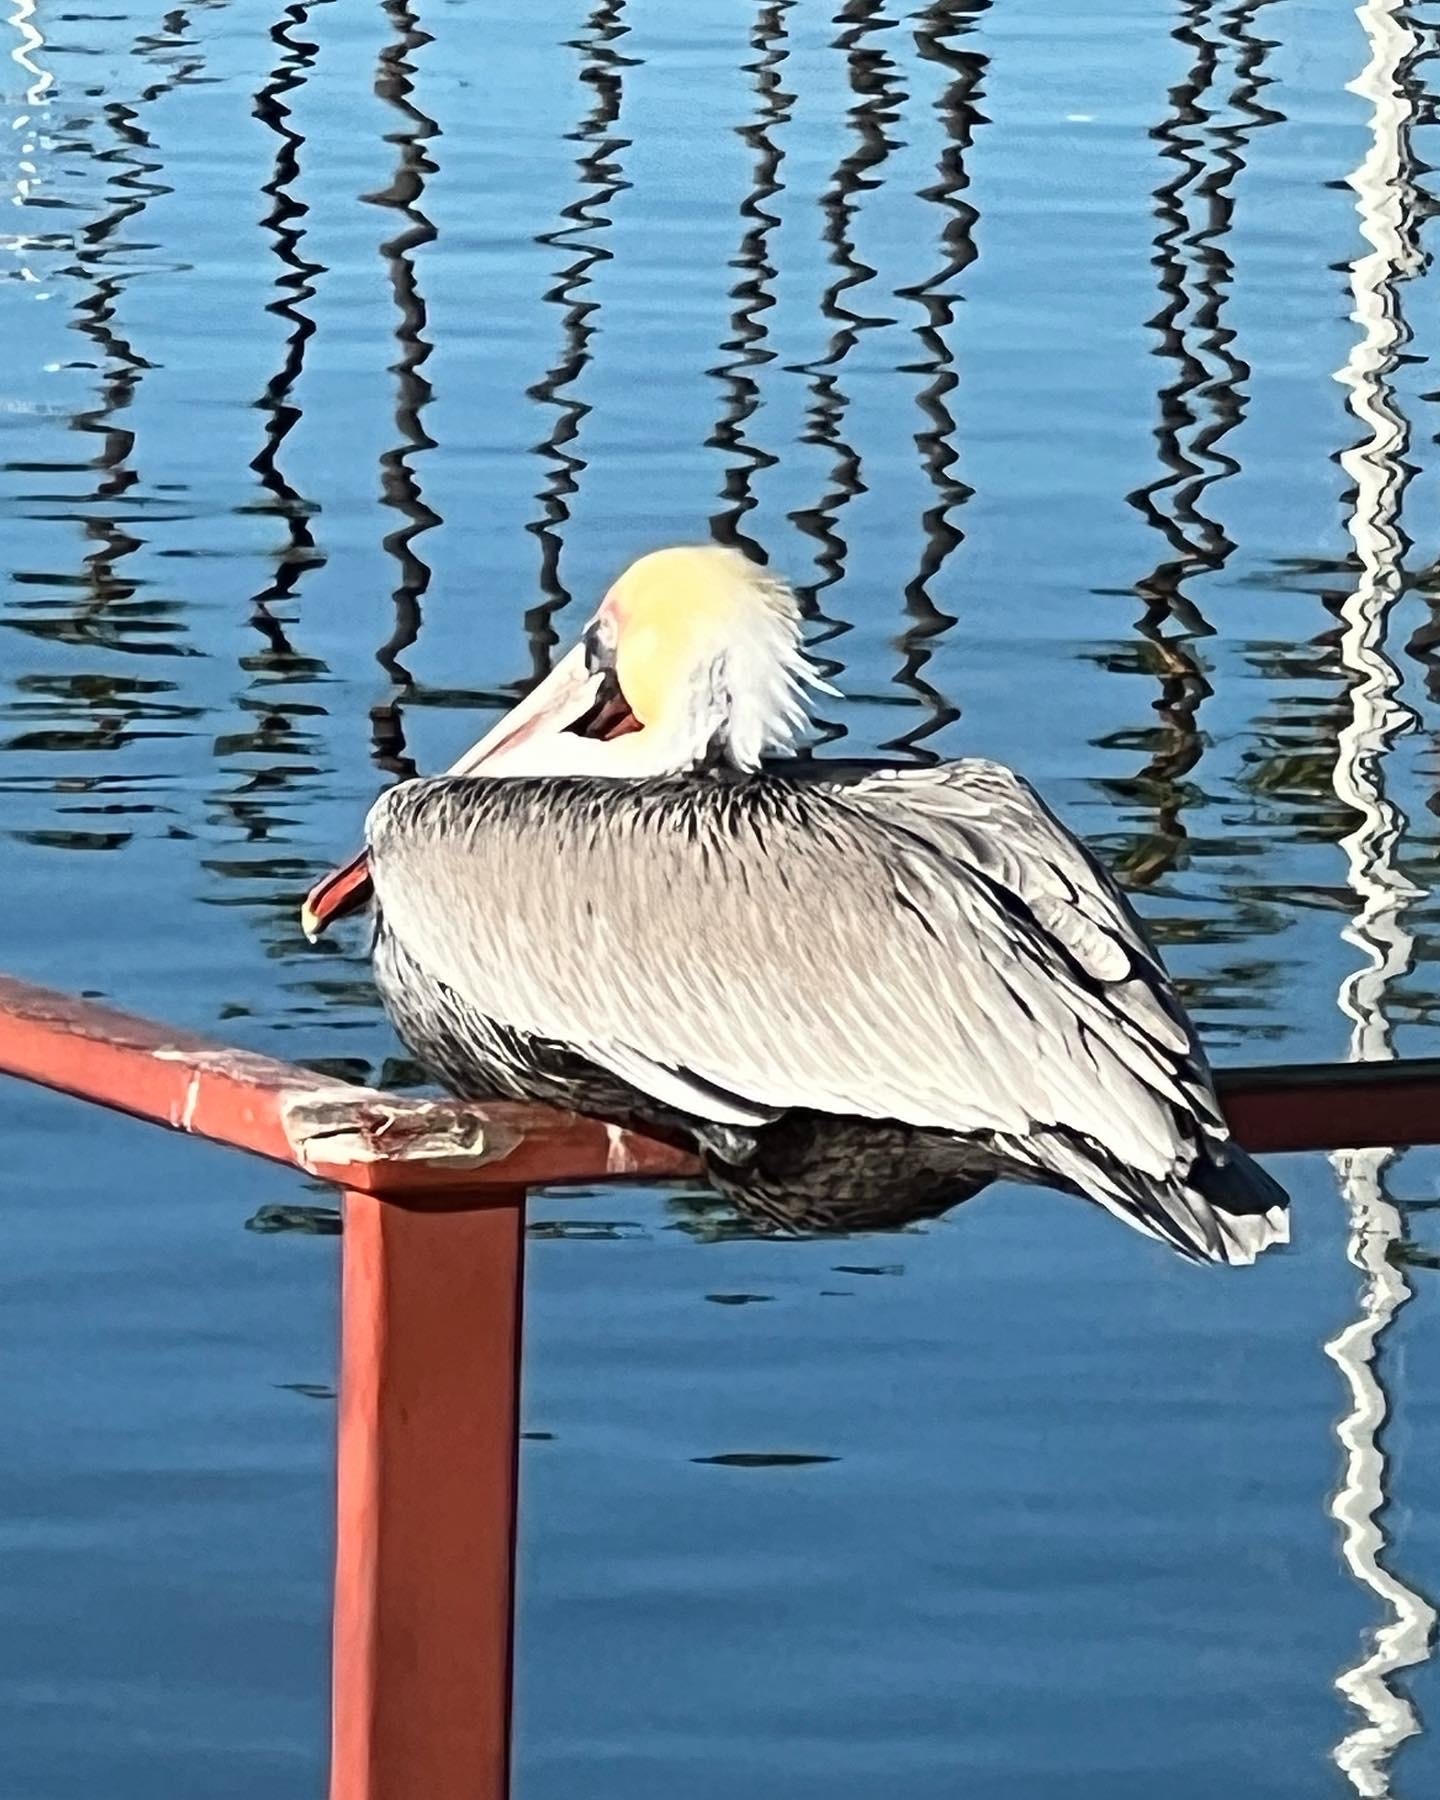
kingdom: Animalia
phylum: Chordata
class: Aves
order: Pelecaniformes
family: Pelecanidae
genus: Pelecanus
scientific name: Pelecanus occidentalis
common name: Brown pelican
